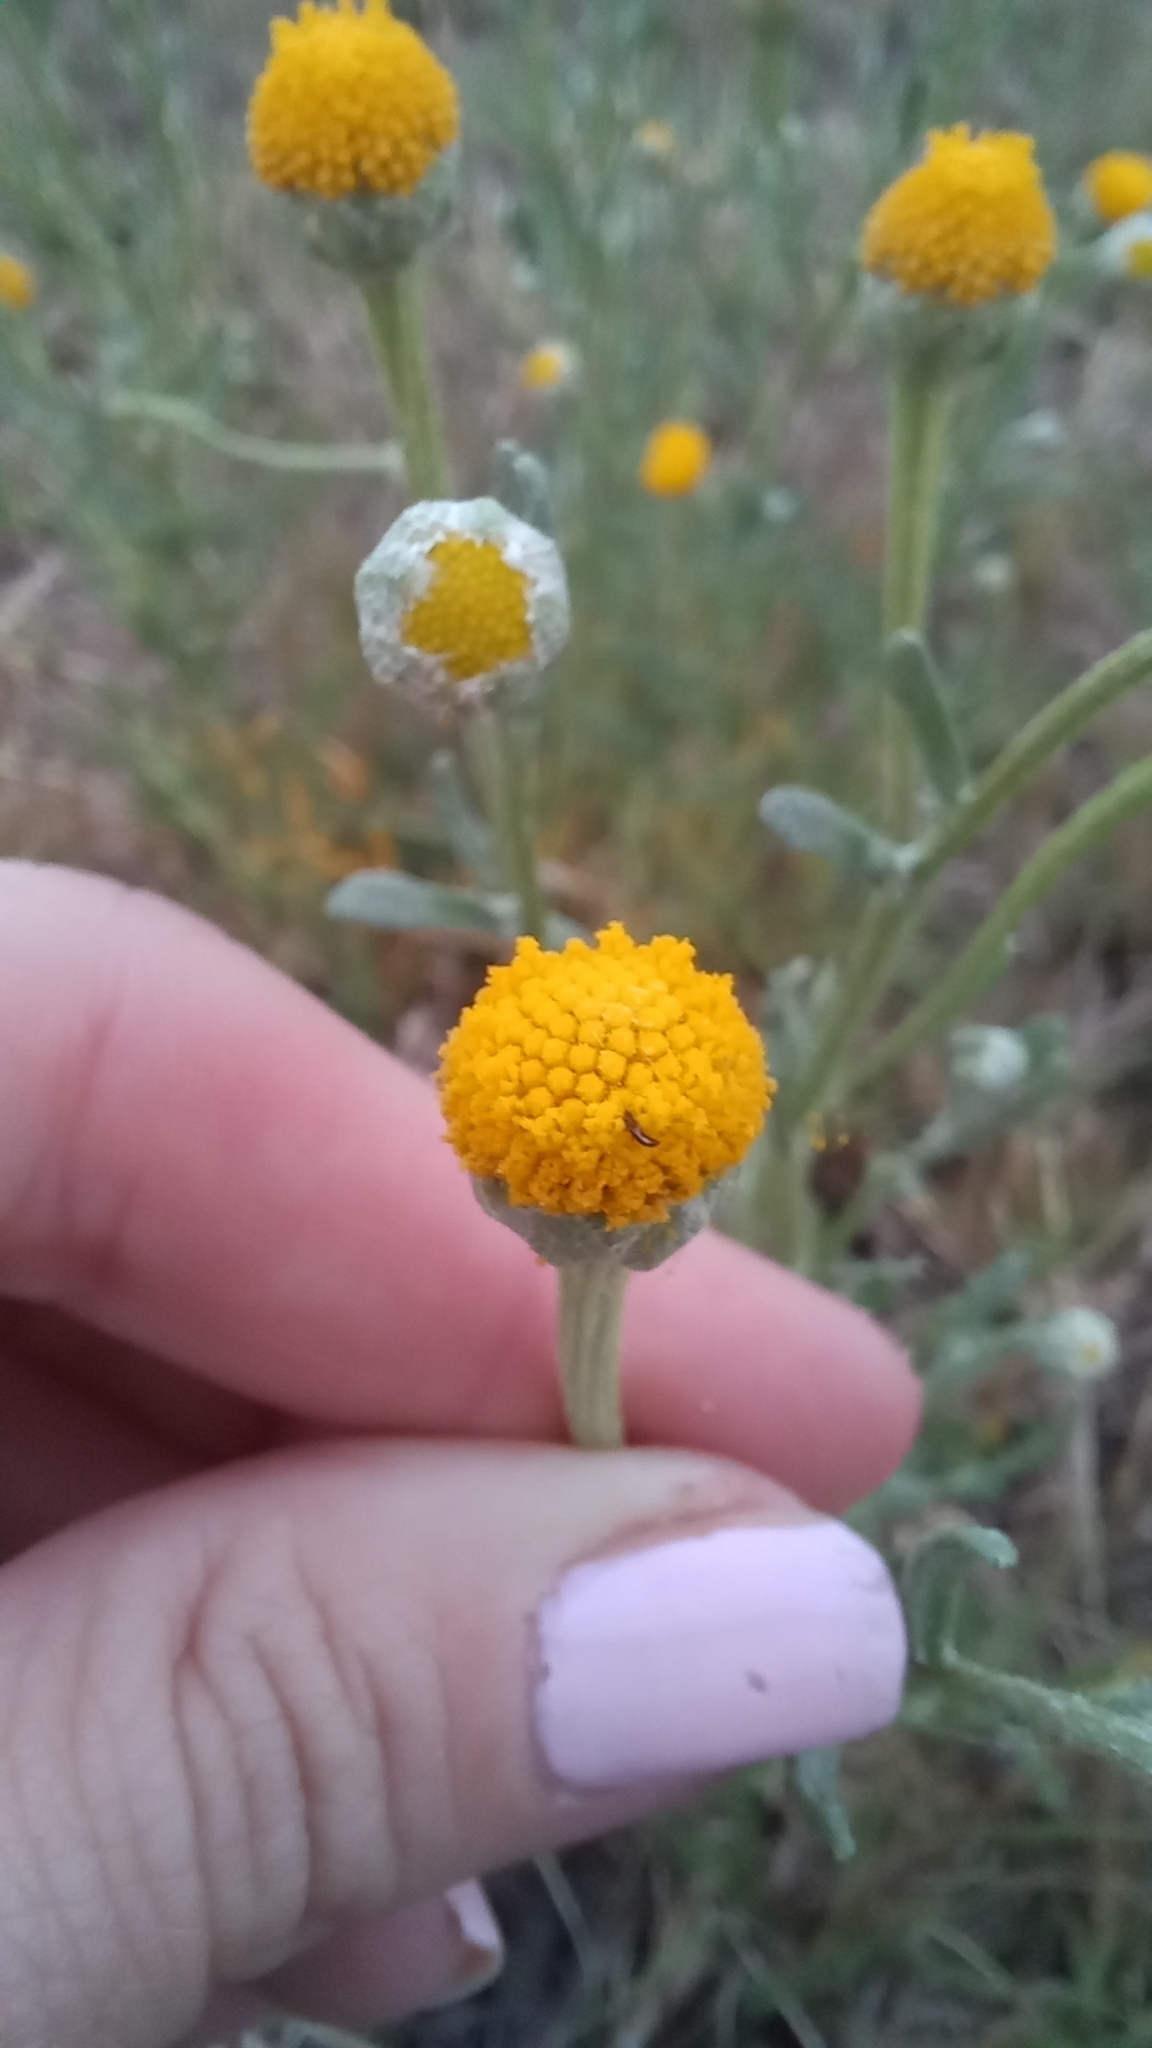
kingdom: Plantae
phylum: Tracheophyta
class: Magnoliopsida
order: Asterales
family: Asteraceae
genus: Cotula
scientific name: Cotula coronopifolia
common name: Buttonweed
